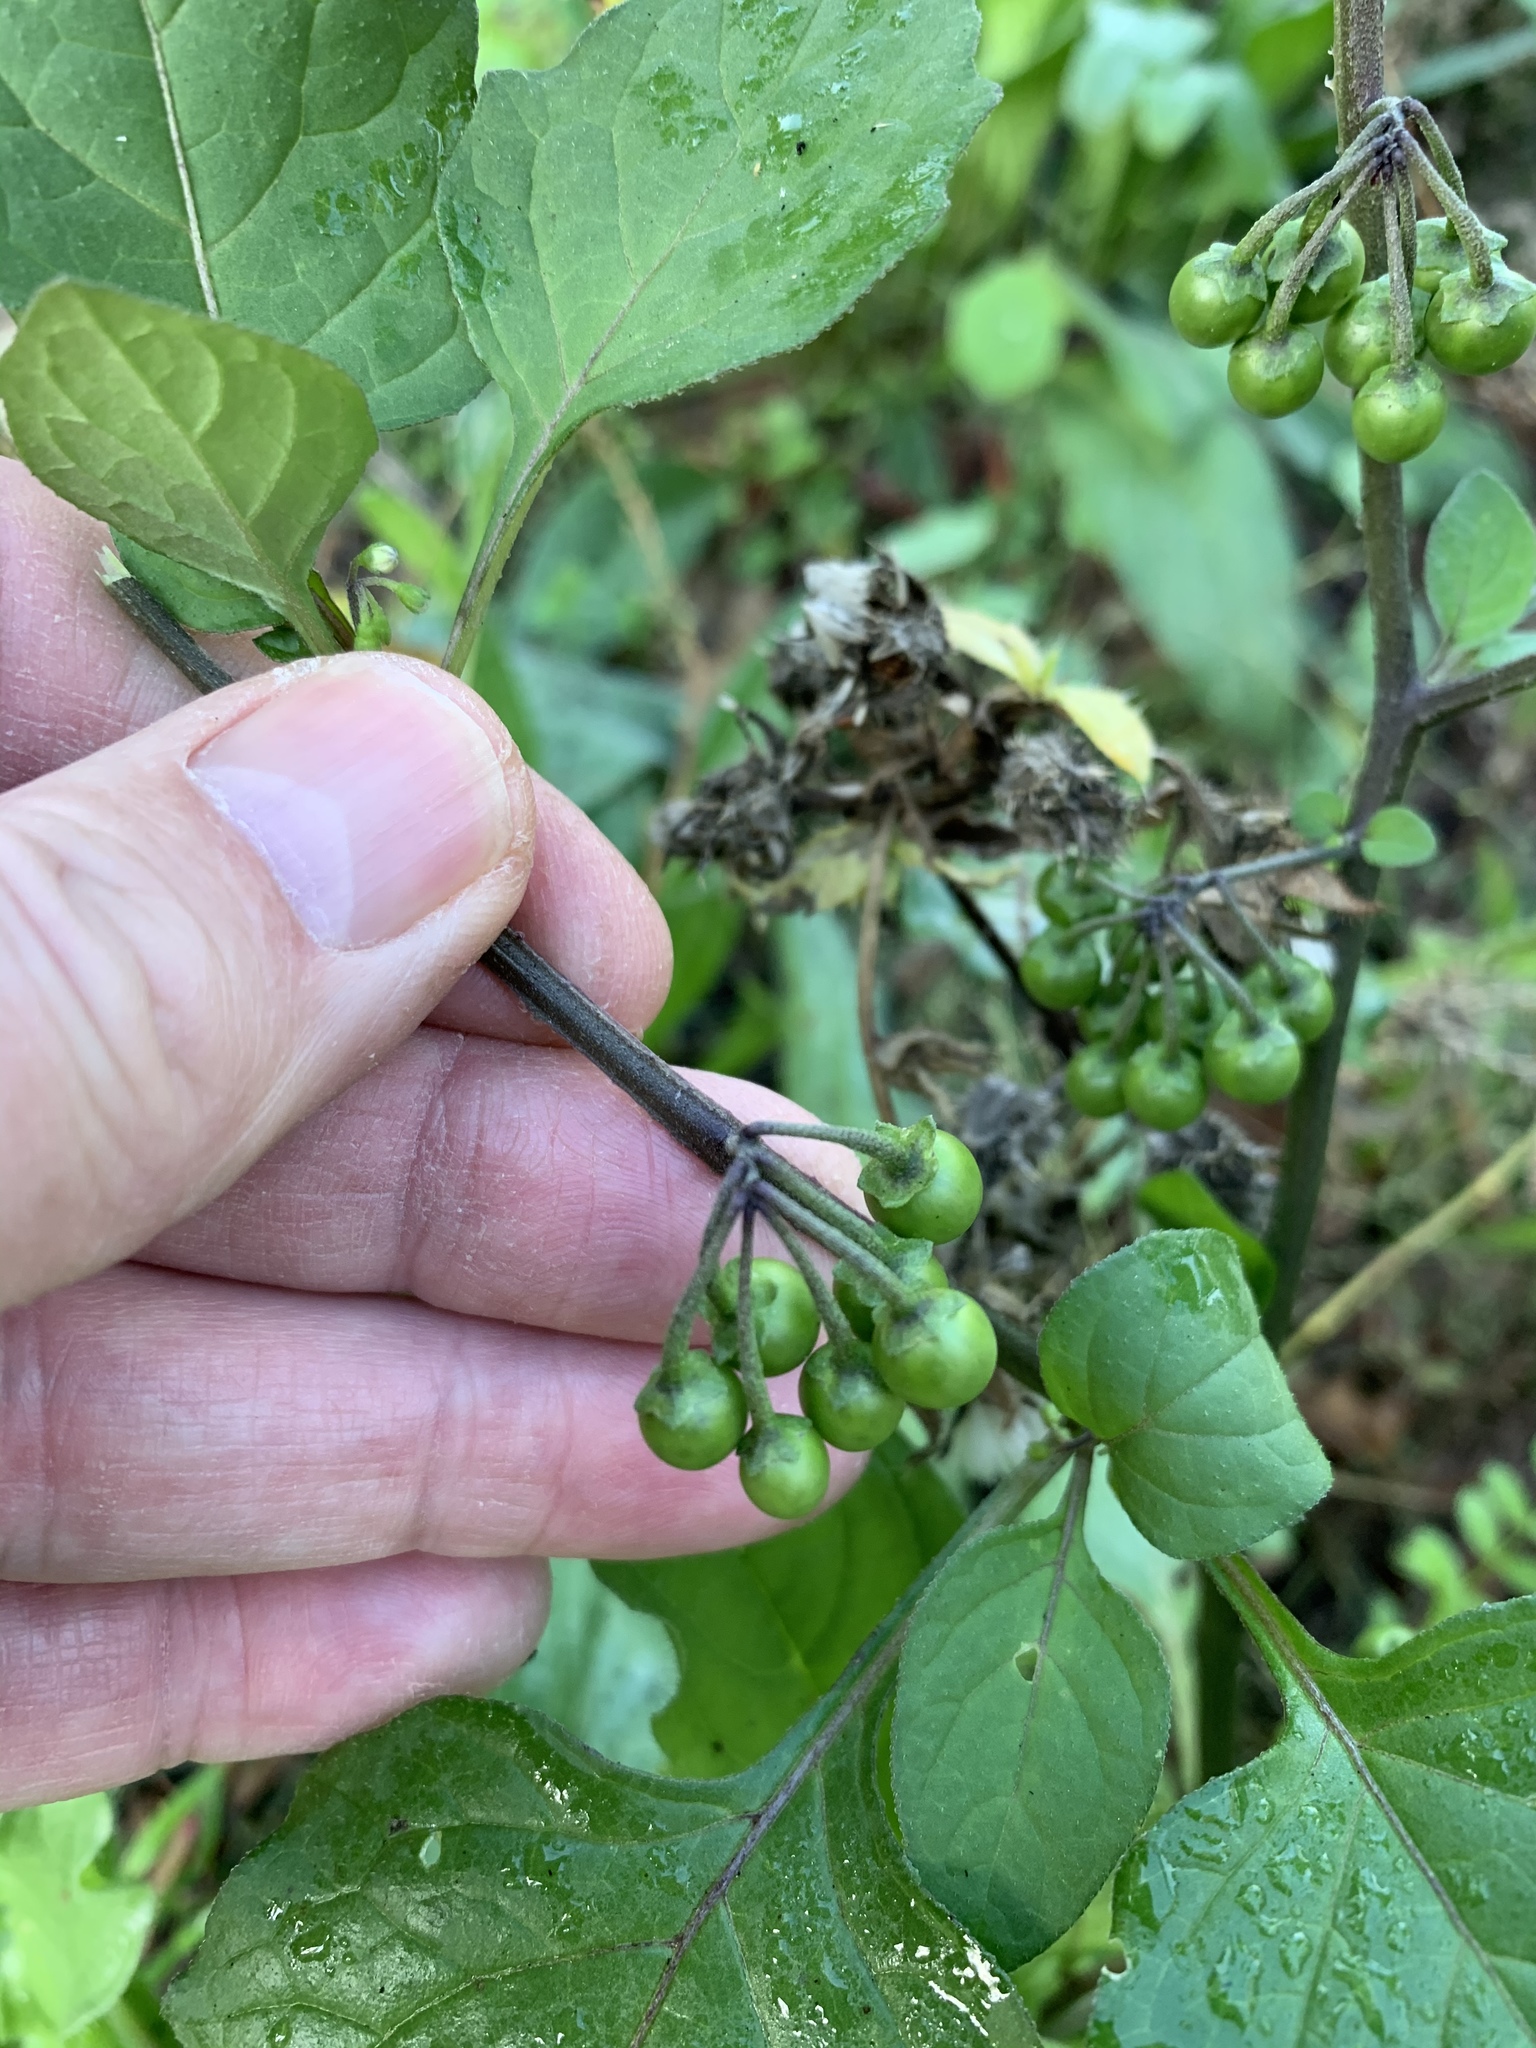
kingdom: Plantae
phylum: Tracheophyta
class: Magnoliopsida
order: Solanales
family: Solanaceae
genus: Solanum
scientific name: Solanum nigrum
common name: Black nightshade
